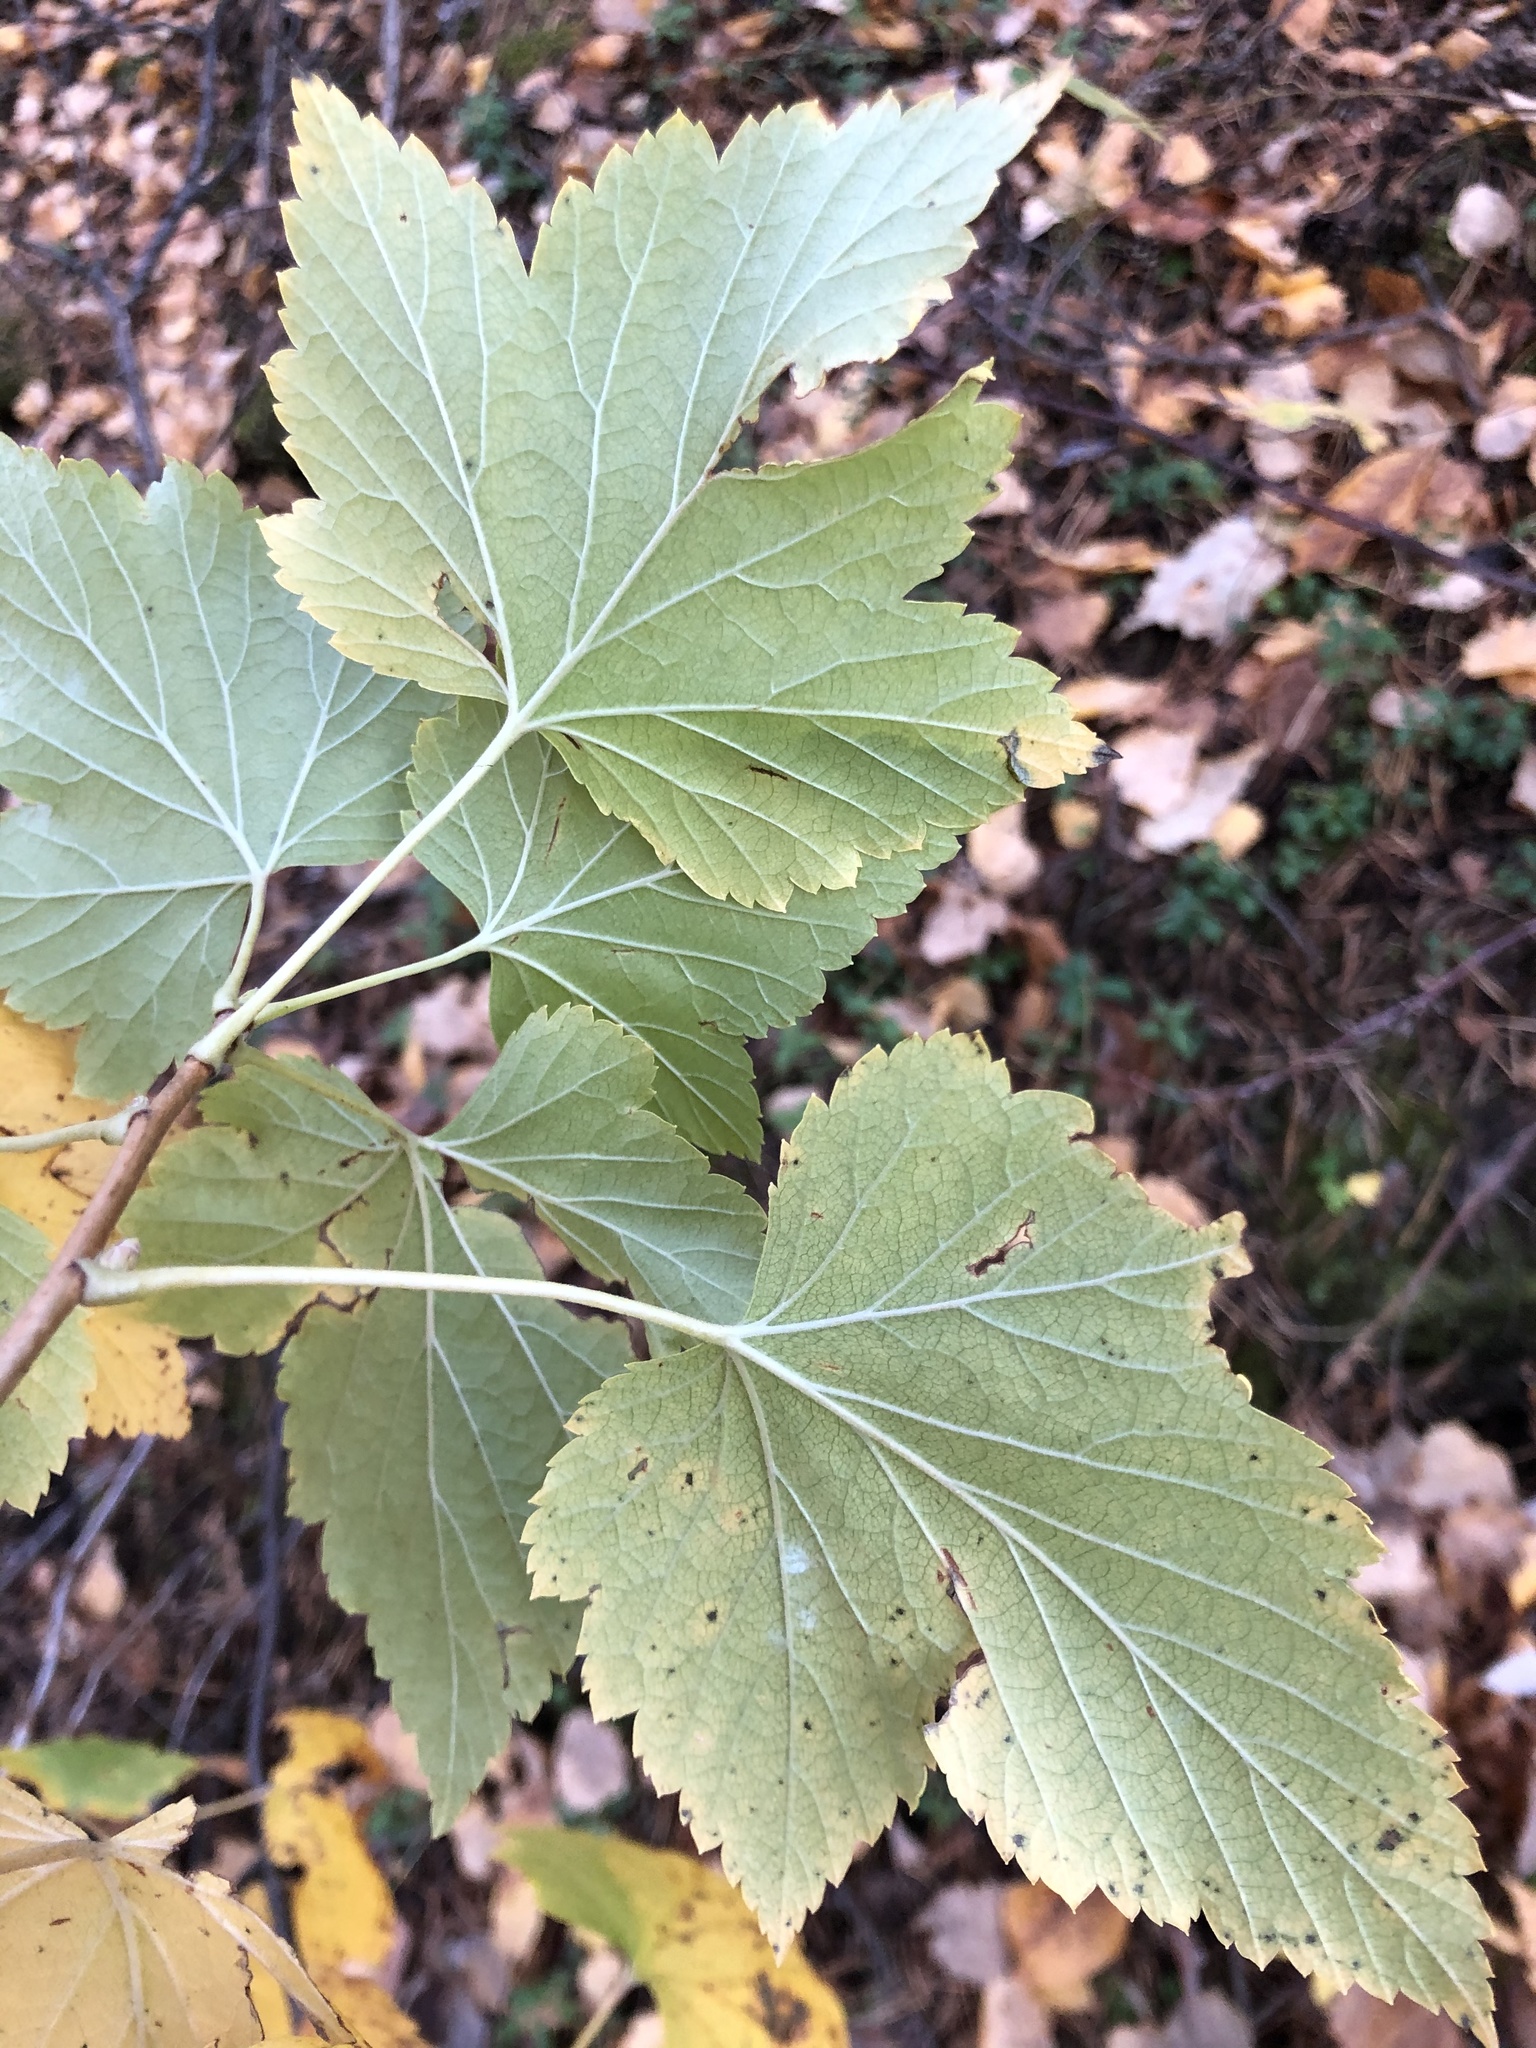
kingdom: Plantae
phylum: Tracheophyta
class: Magnoliopsida
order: Saxifragales
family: Grossulariaceae
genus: Ribes
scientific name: Ribes nigrum
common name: Black currant
